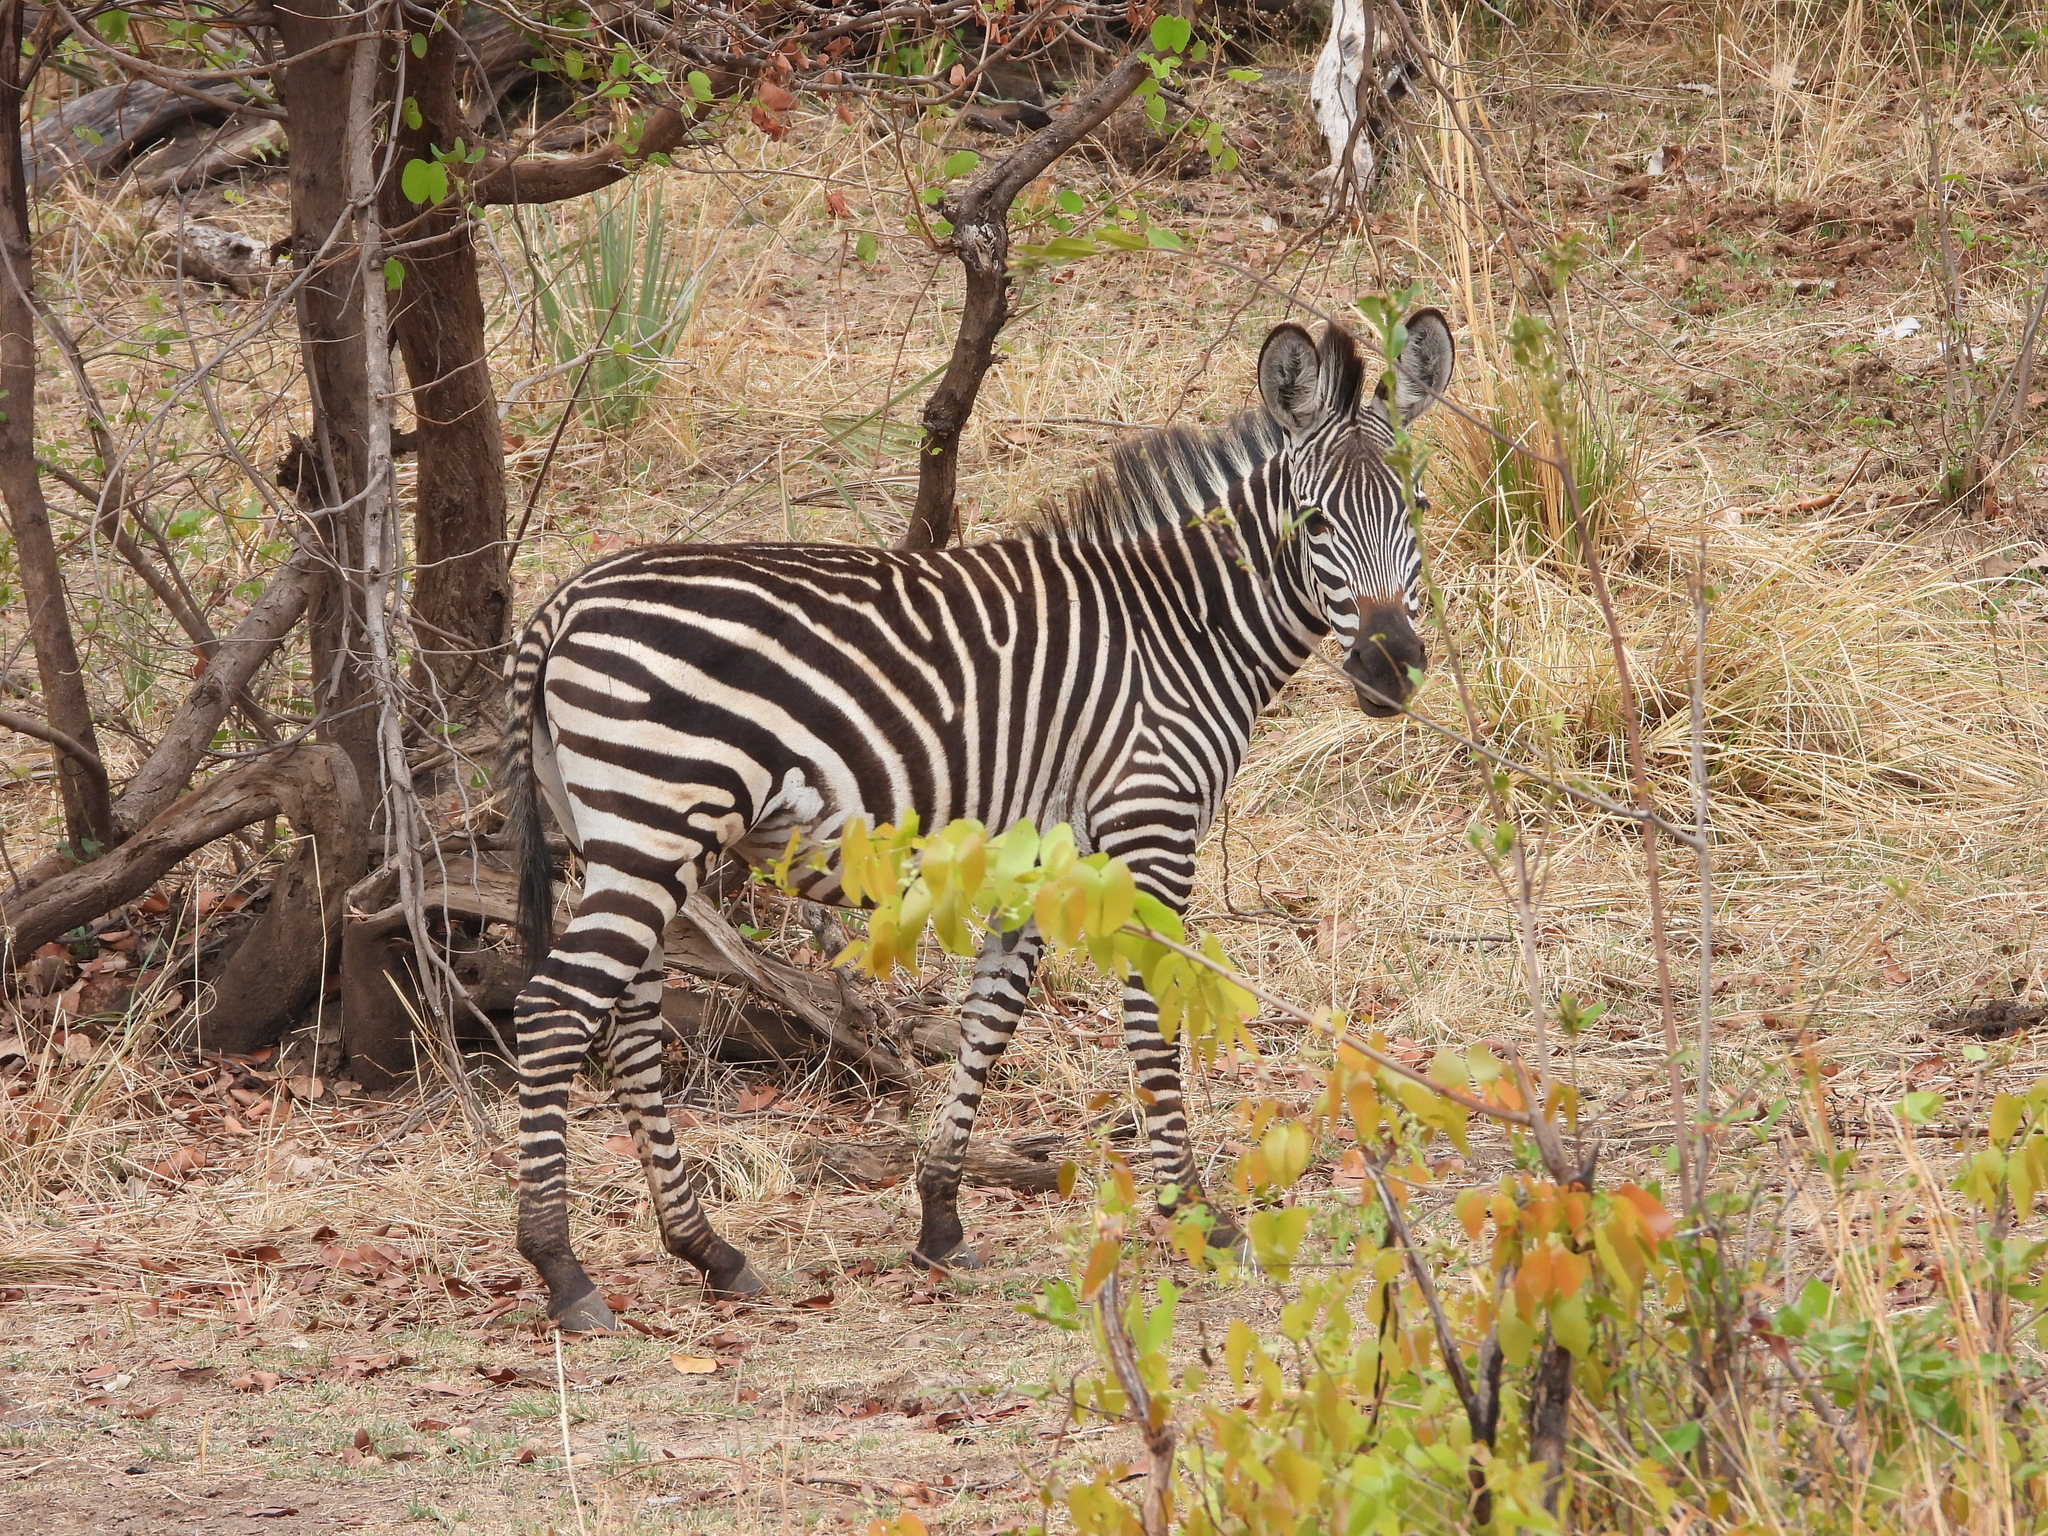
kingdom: Animalia
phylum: Chordata
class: Mammalia
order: Perissodactyla
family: Equidae
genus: Equus
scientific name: Equus quagga
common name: Plains zebra
